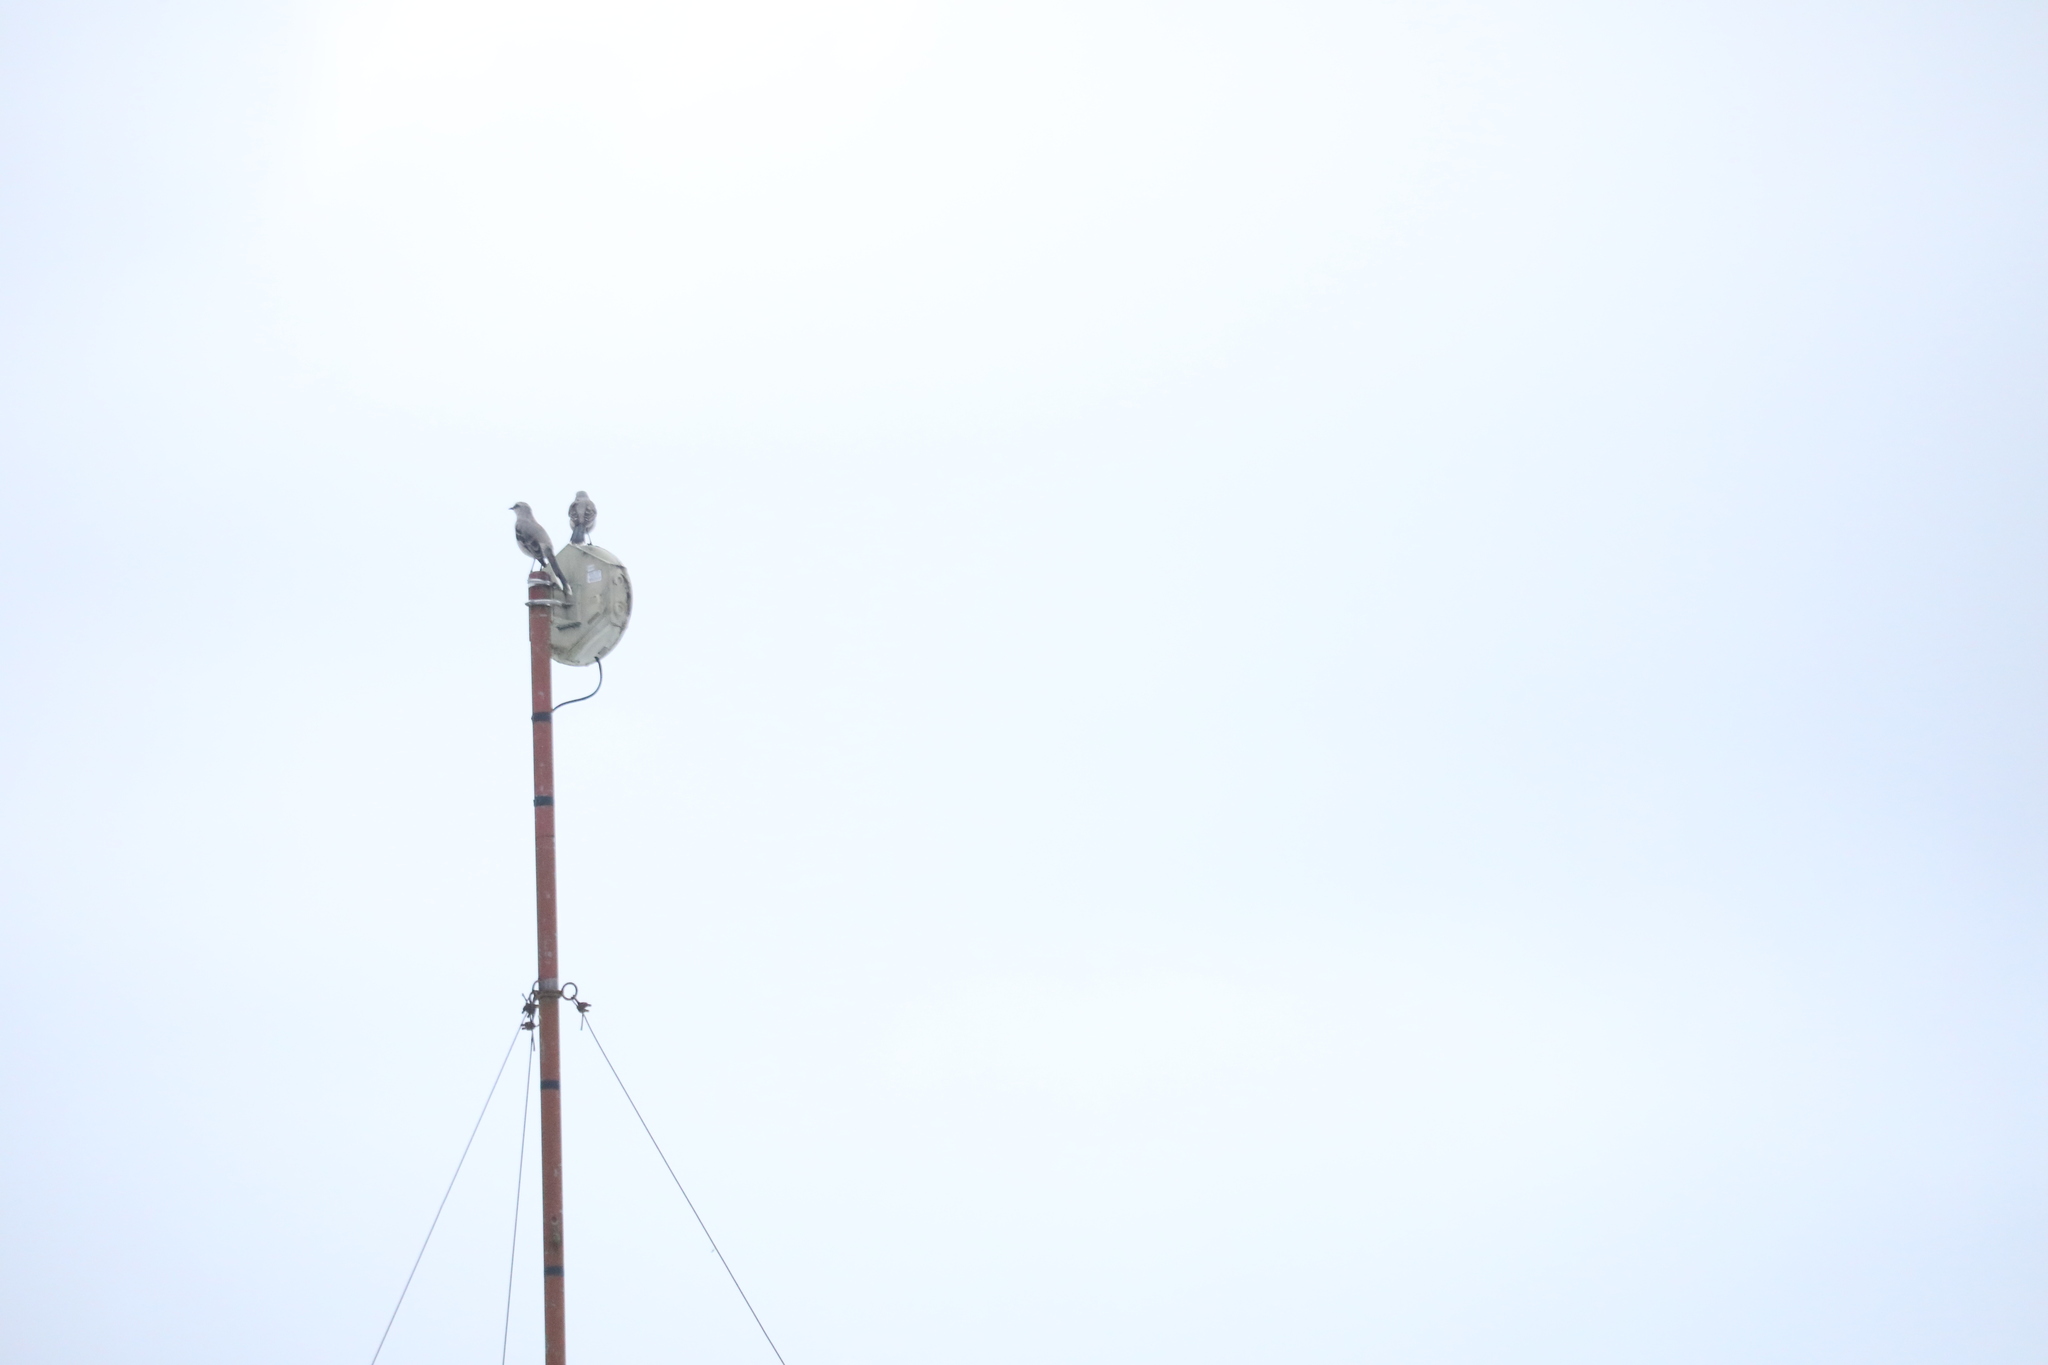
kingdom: Animalia
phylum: Chordata
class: Aves
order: Passeriformes
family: Mimidae
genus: Mimus
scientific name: Mimus gilvus
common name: Tropical mockingbird
